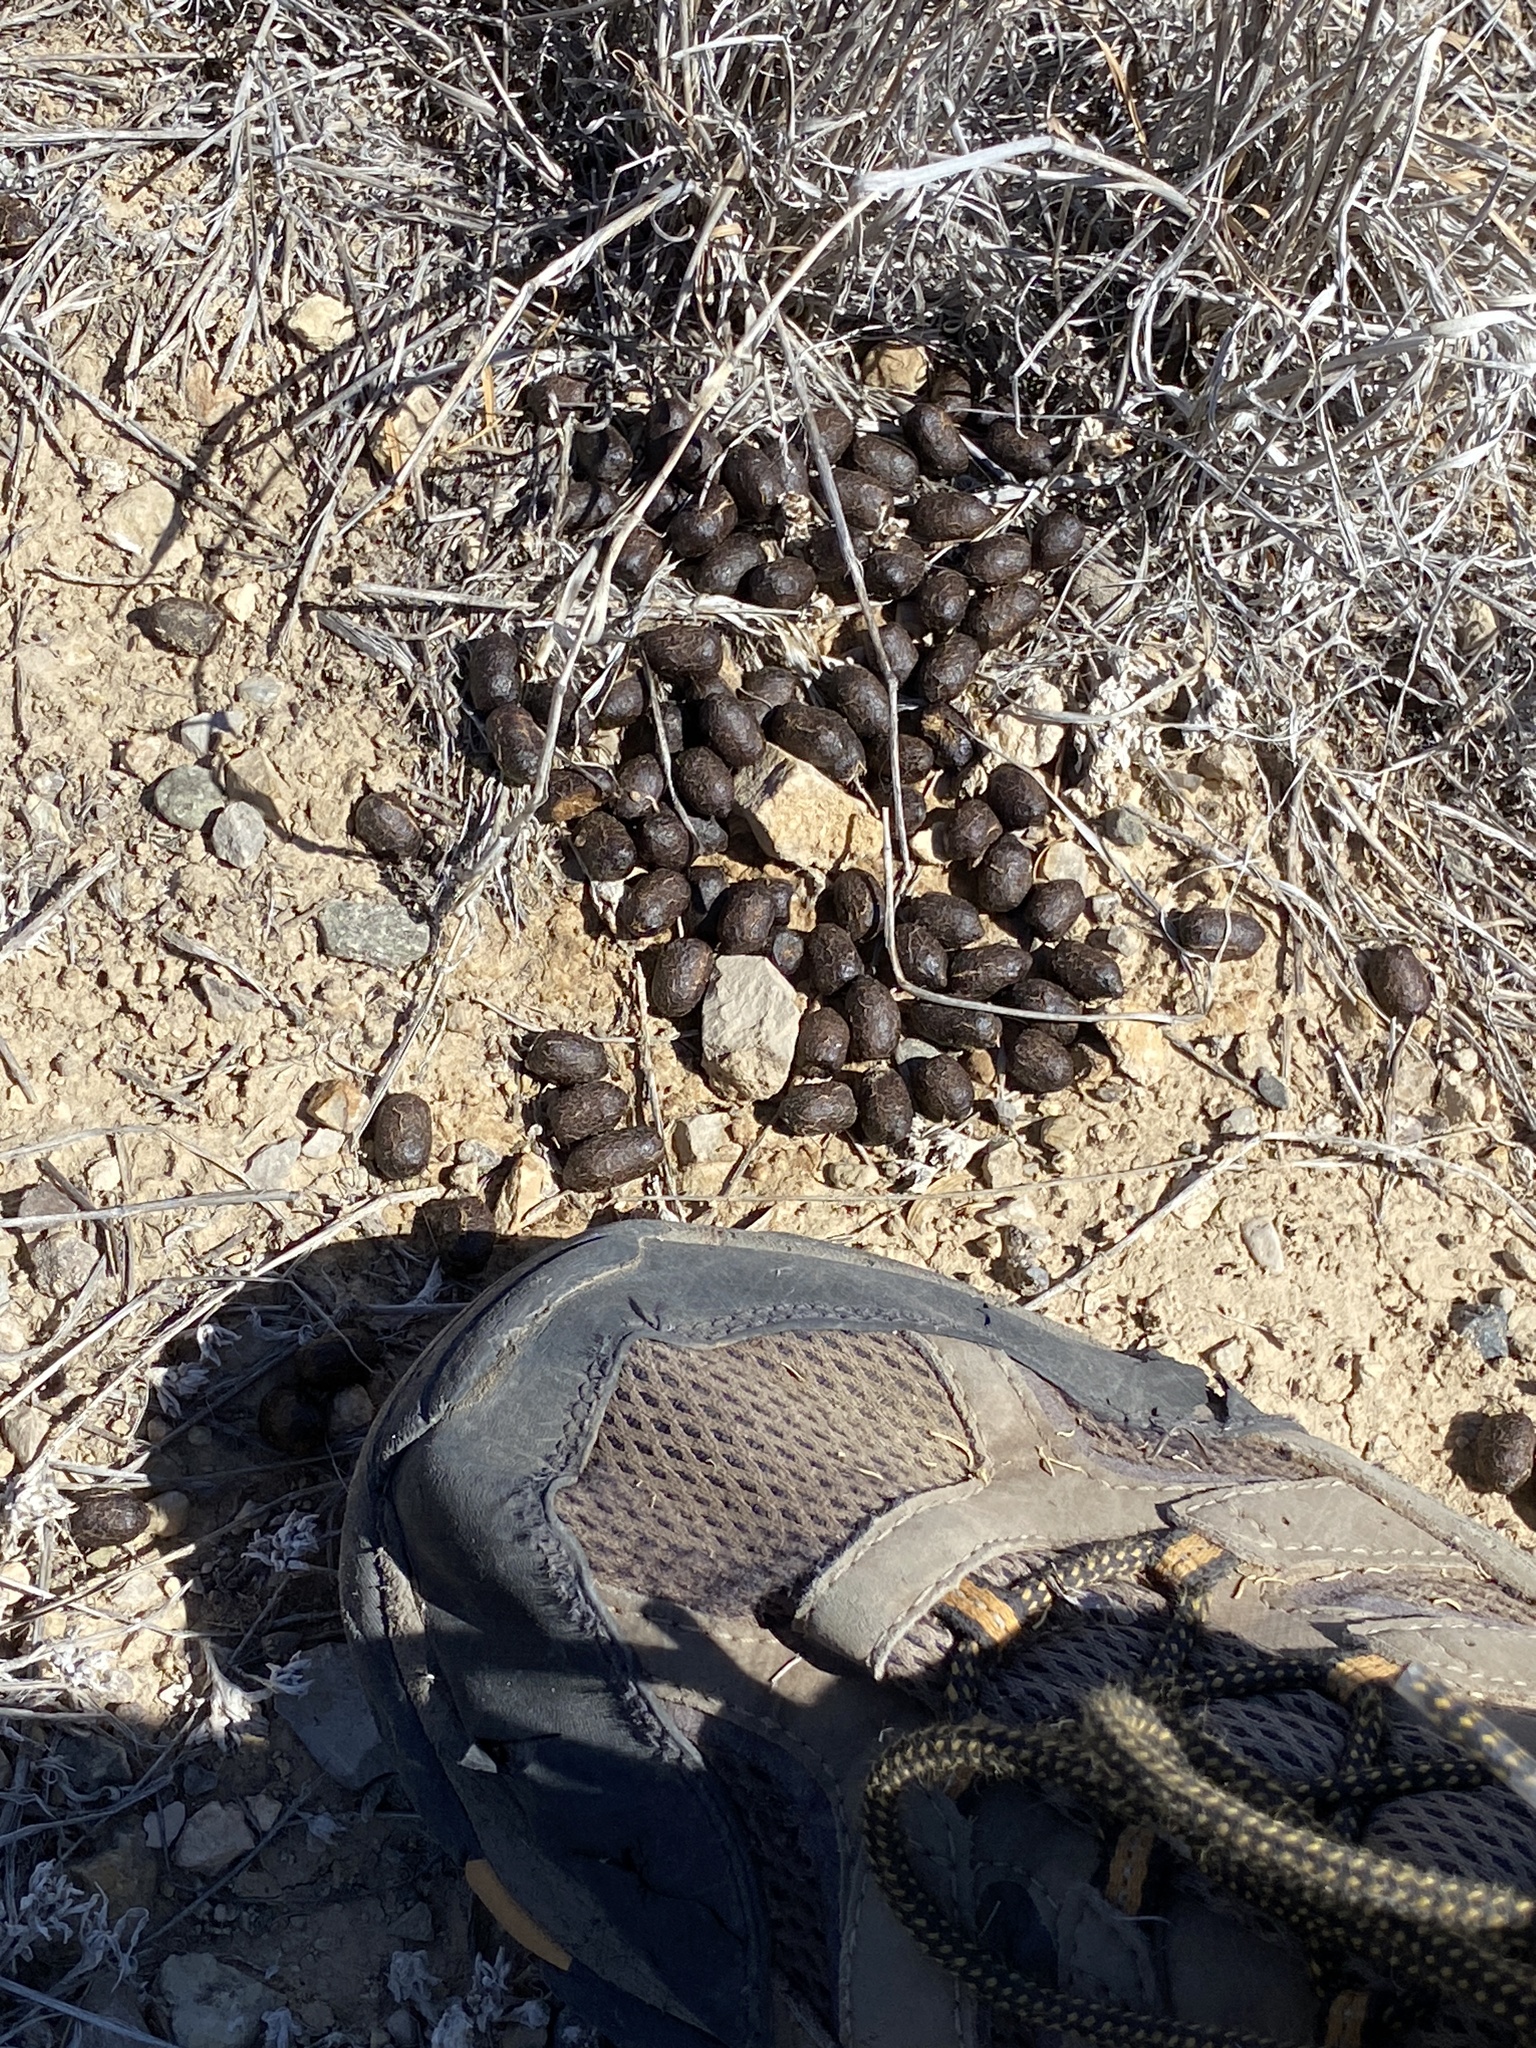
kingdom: Animalia
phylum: Chordata
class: Mammalia
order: Artiodactyla
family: Cervidae
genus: Odocoileus
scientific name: Odocoileus hemionus
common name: Mule deer
